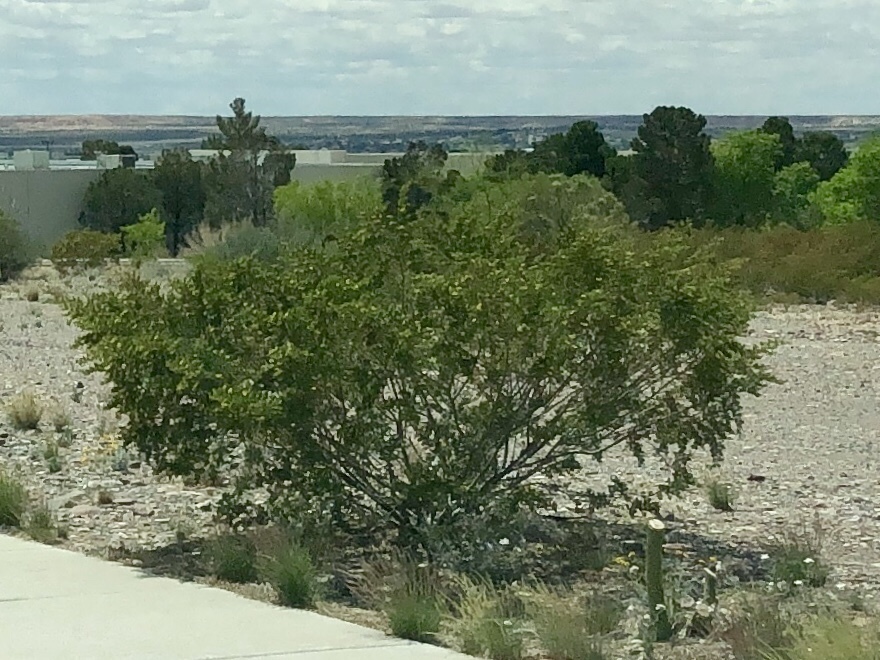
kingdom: Plantae
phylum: Tracheophyta
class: Magnoliopsida
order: Zygophyllales
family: Zygophyllaceae
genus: Larrea
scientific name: Larrea tridentata
